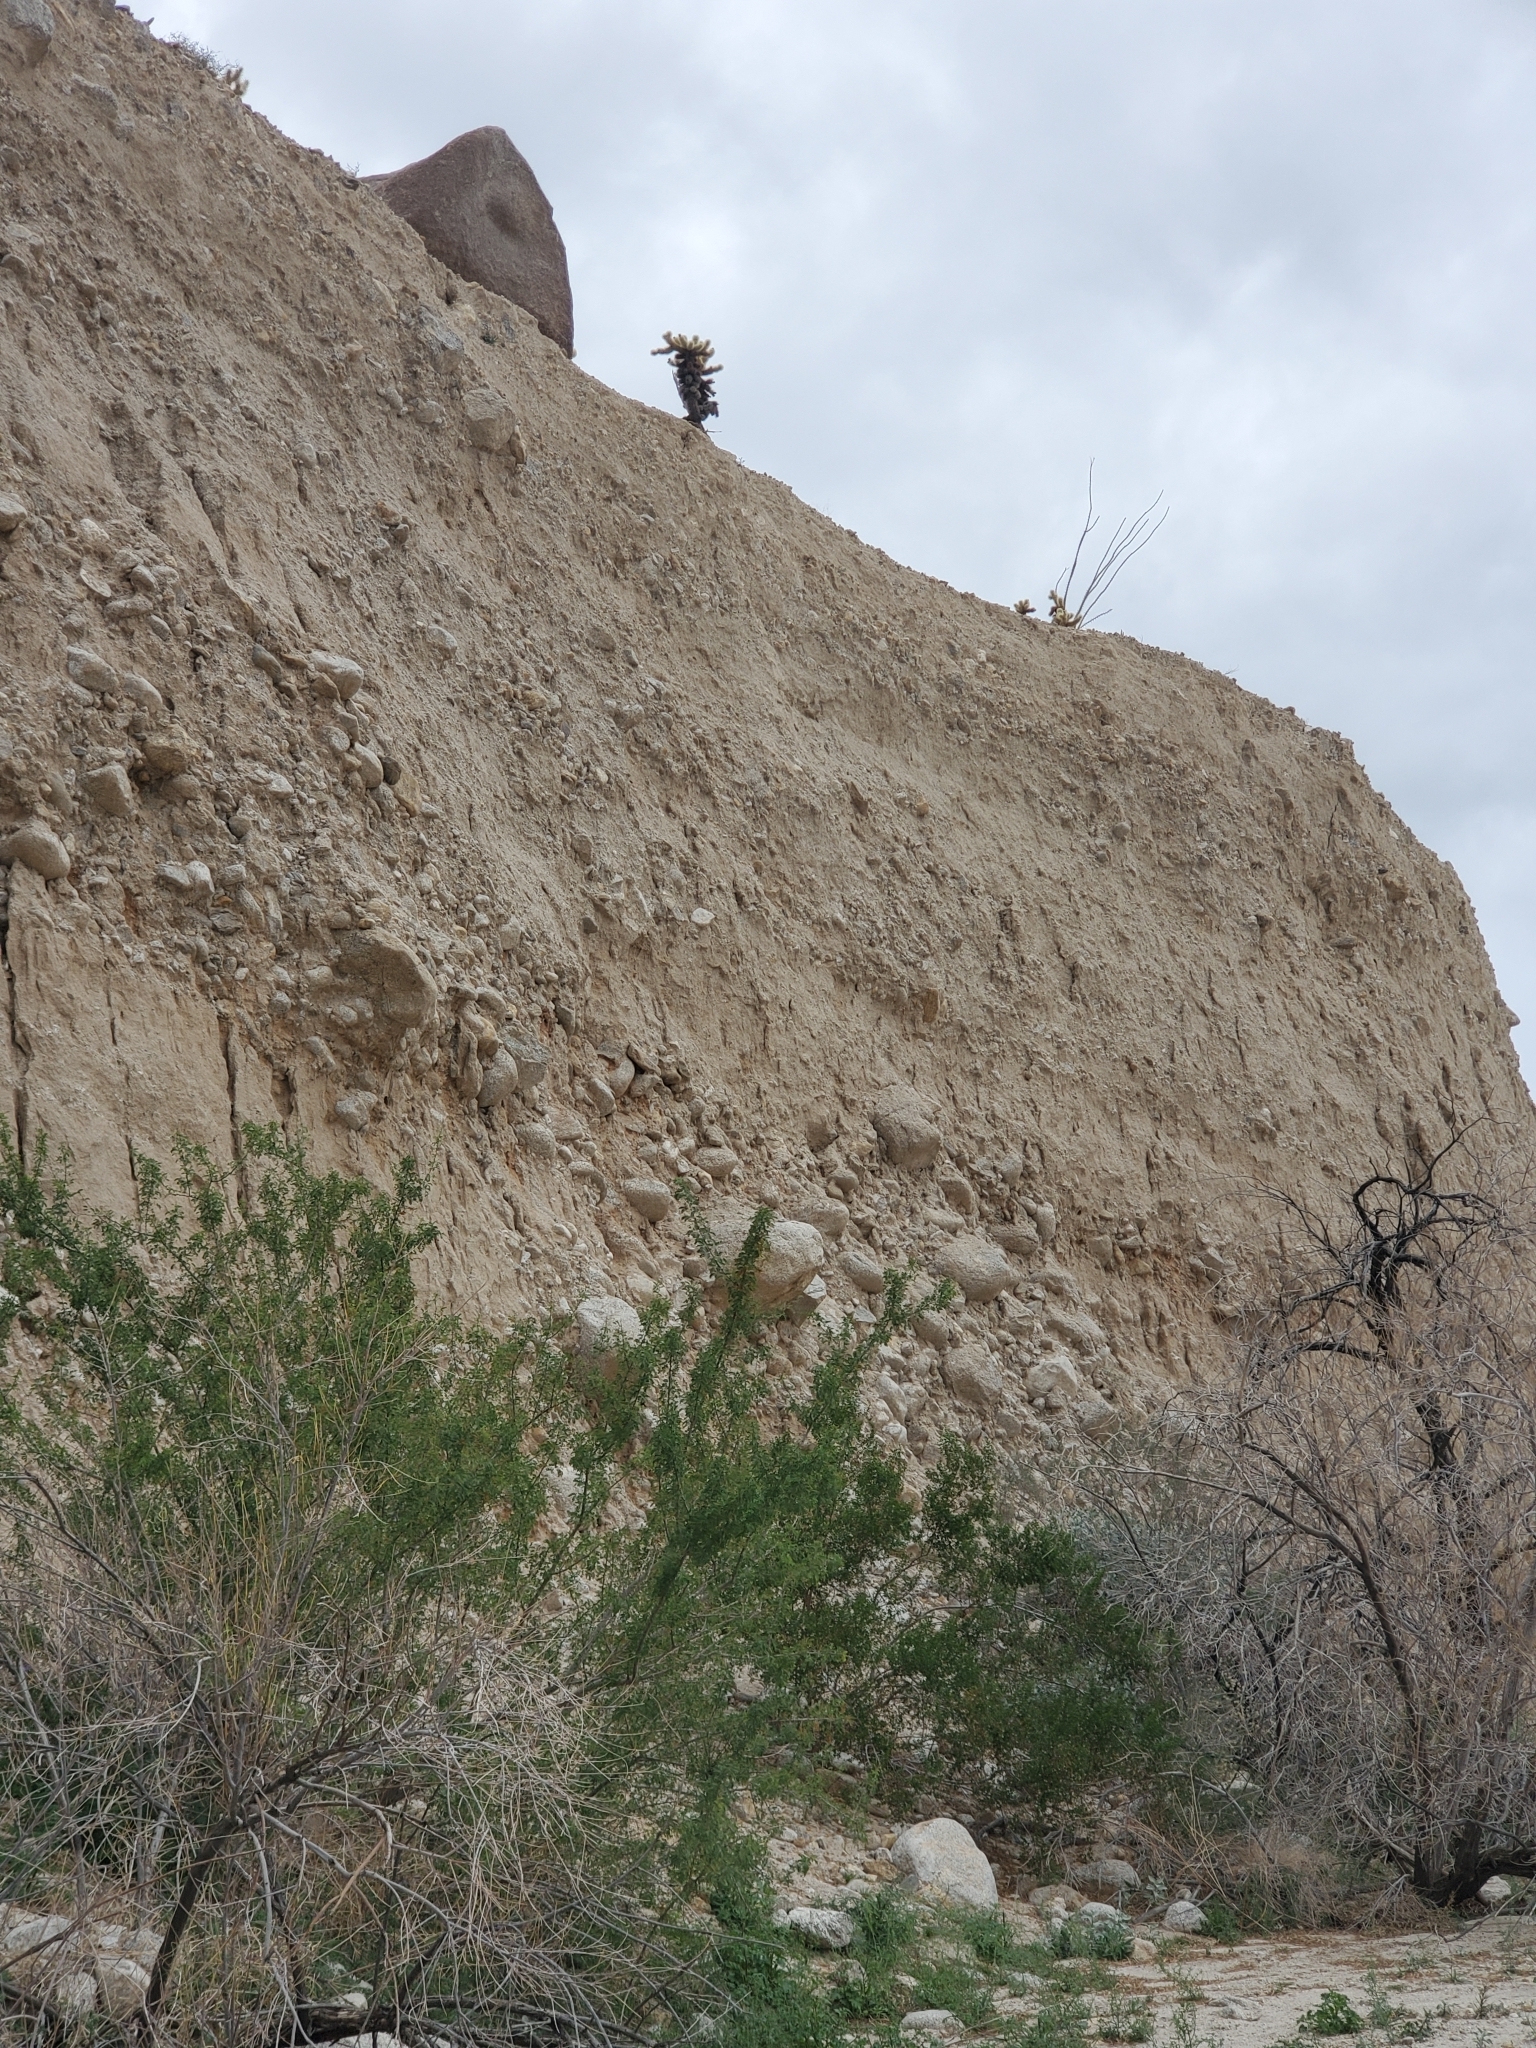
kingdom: Plantae
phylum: Tracheophyta
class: Magnoliopsida
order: Caryophyllales
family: Cactaceae
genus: Cylindropuntia
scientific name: Cylindropuntia fosbergii
